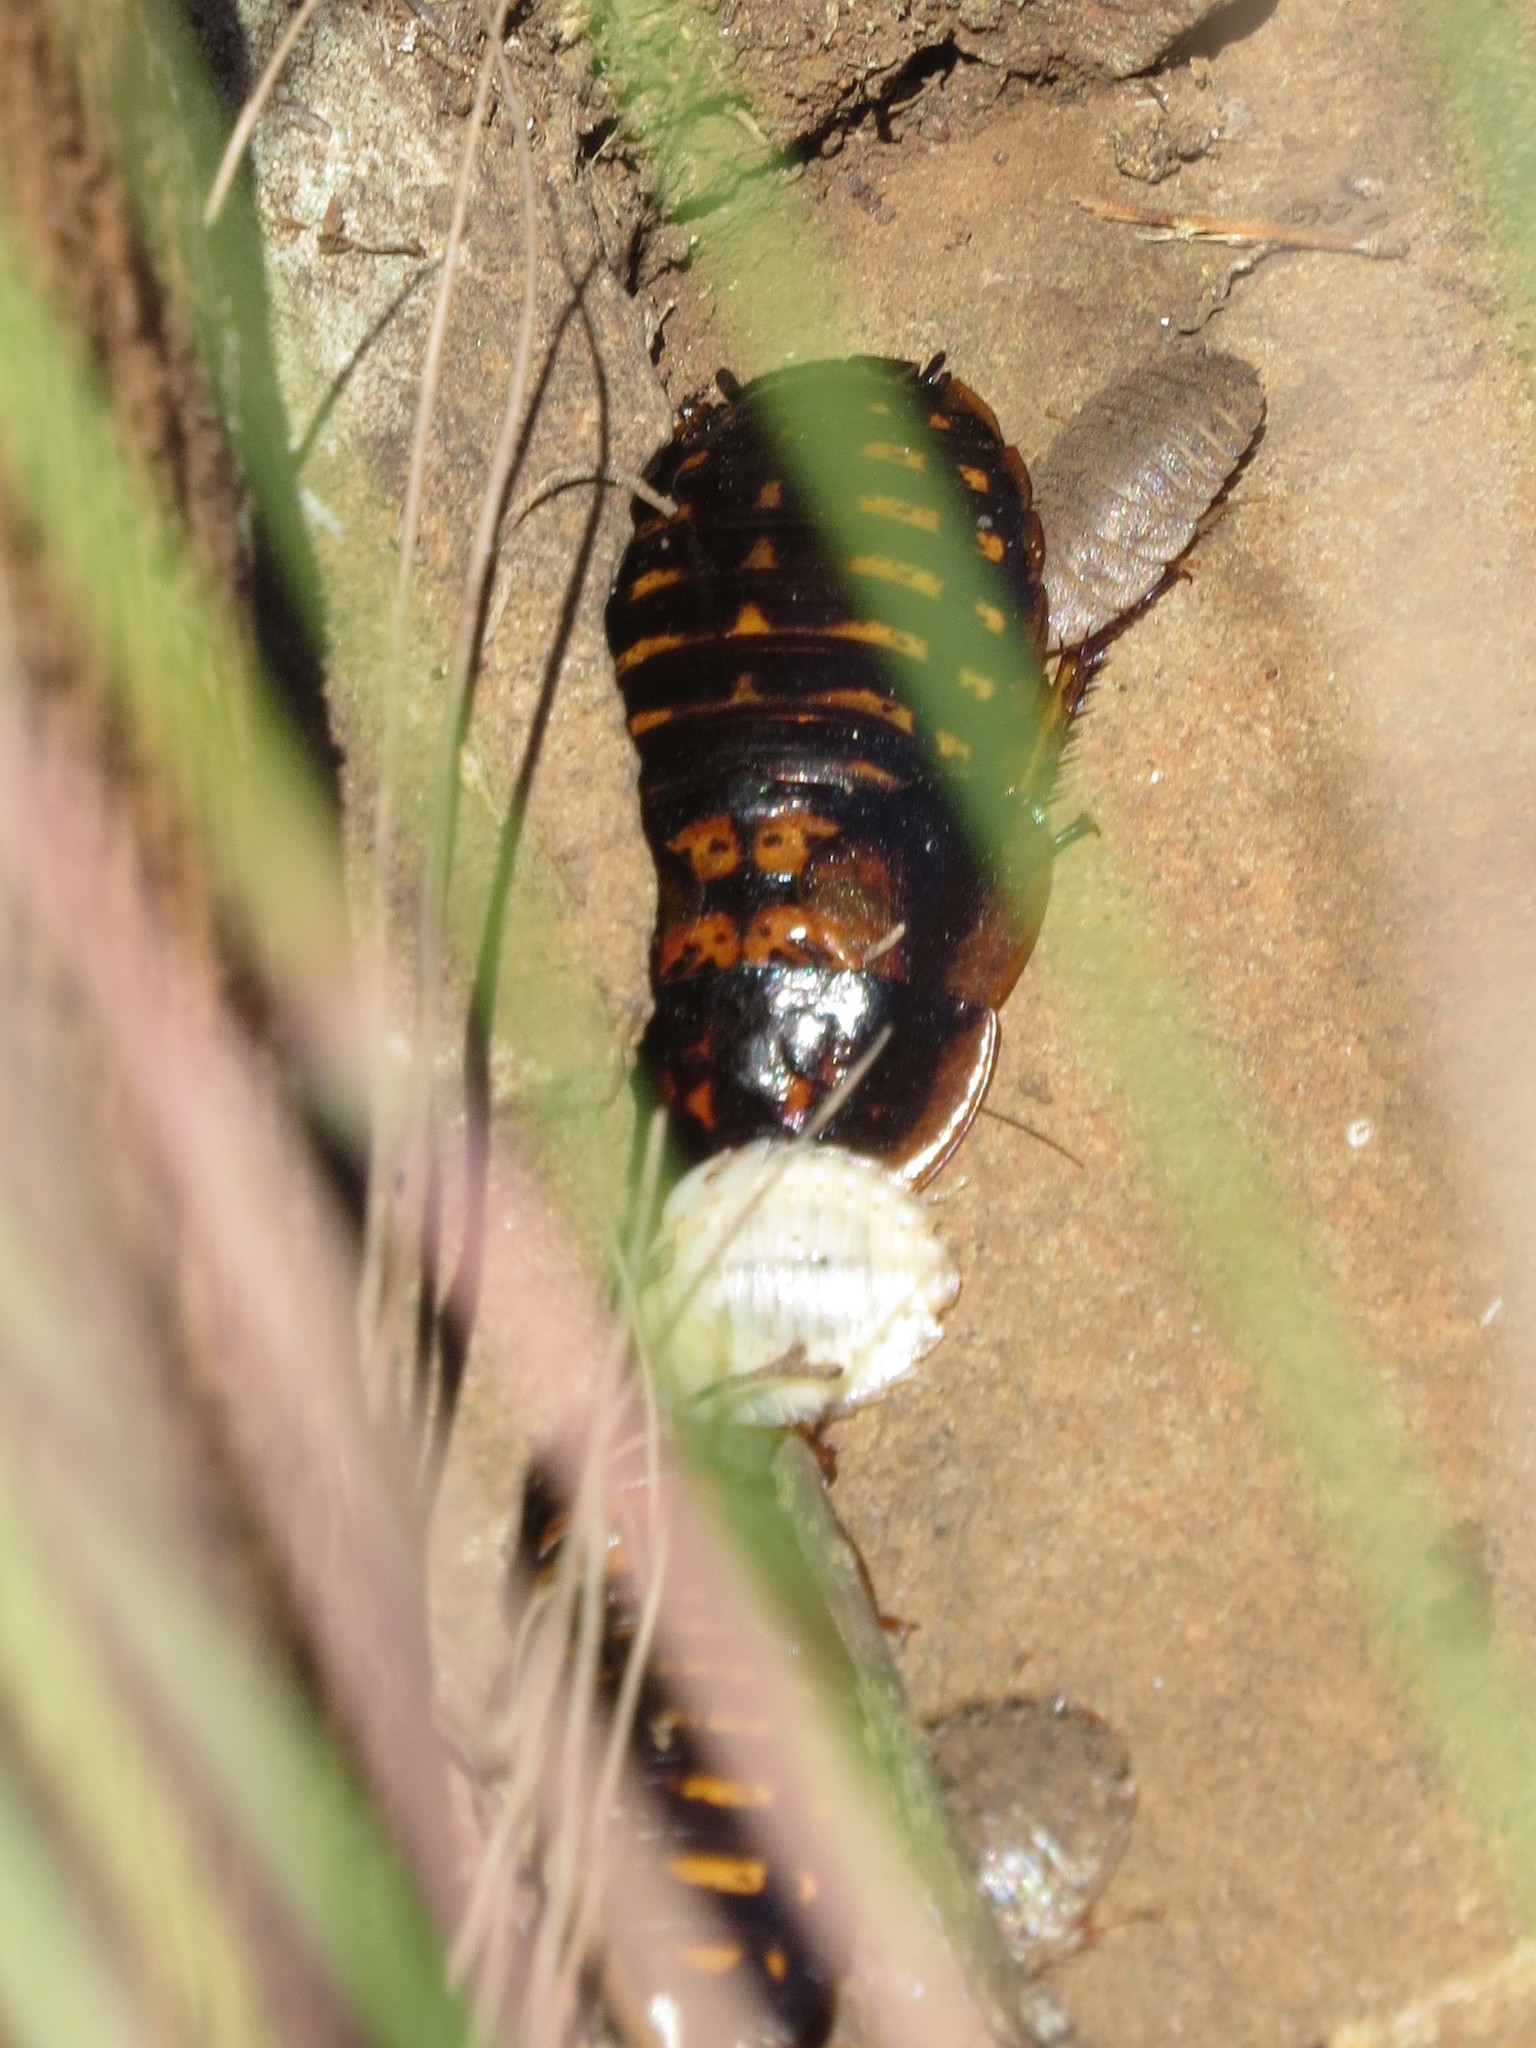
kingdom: Animalia
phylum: Arthropoda
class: Insecta
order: Blattodea
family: Blaberidae
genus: Blaptica
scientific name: Blaptica dubia
